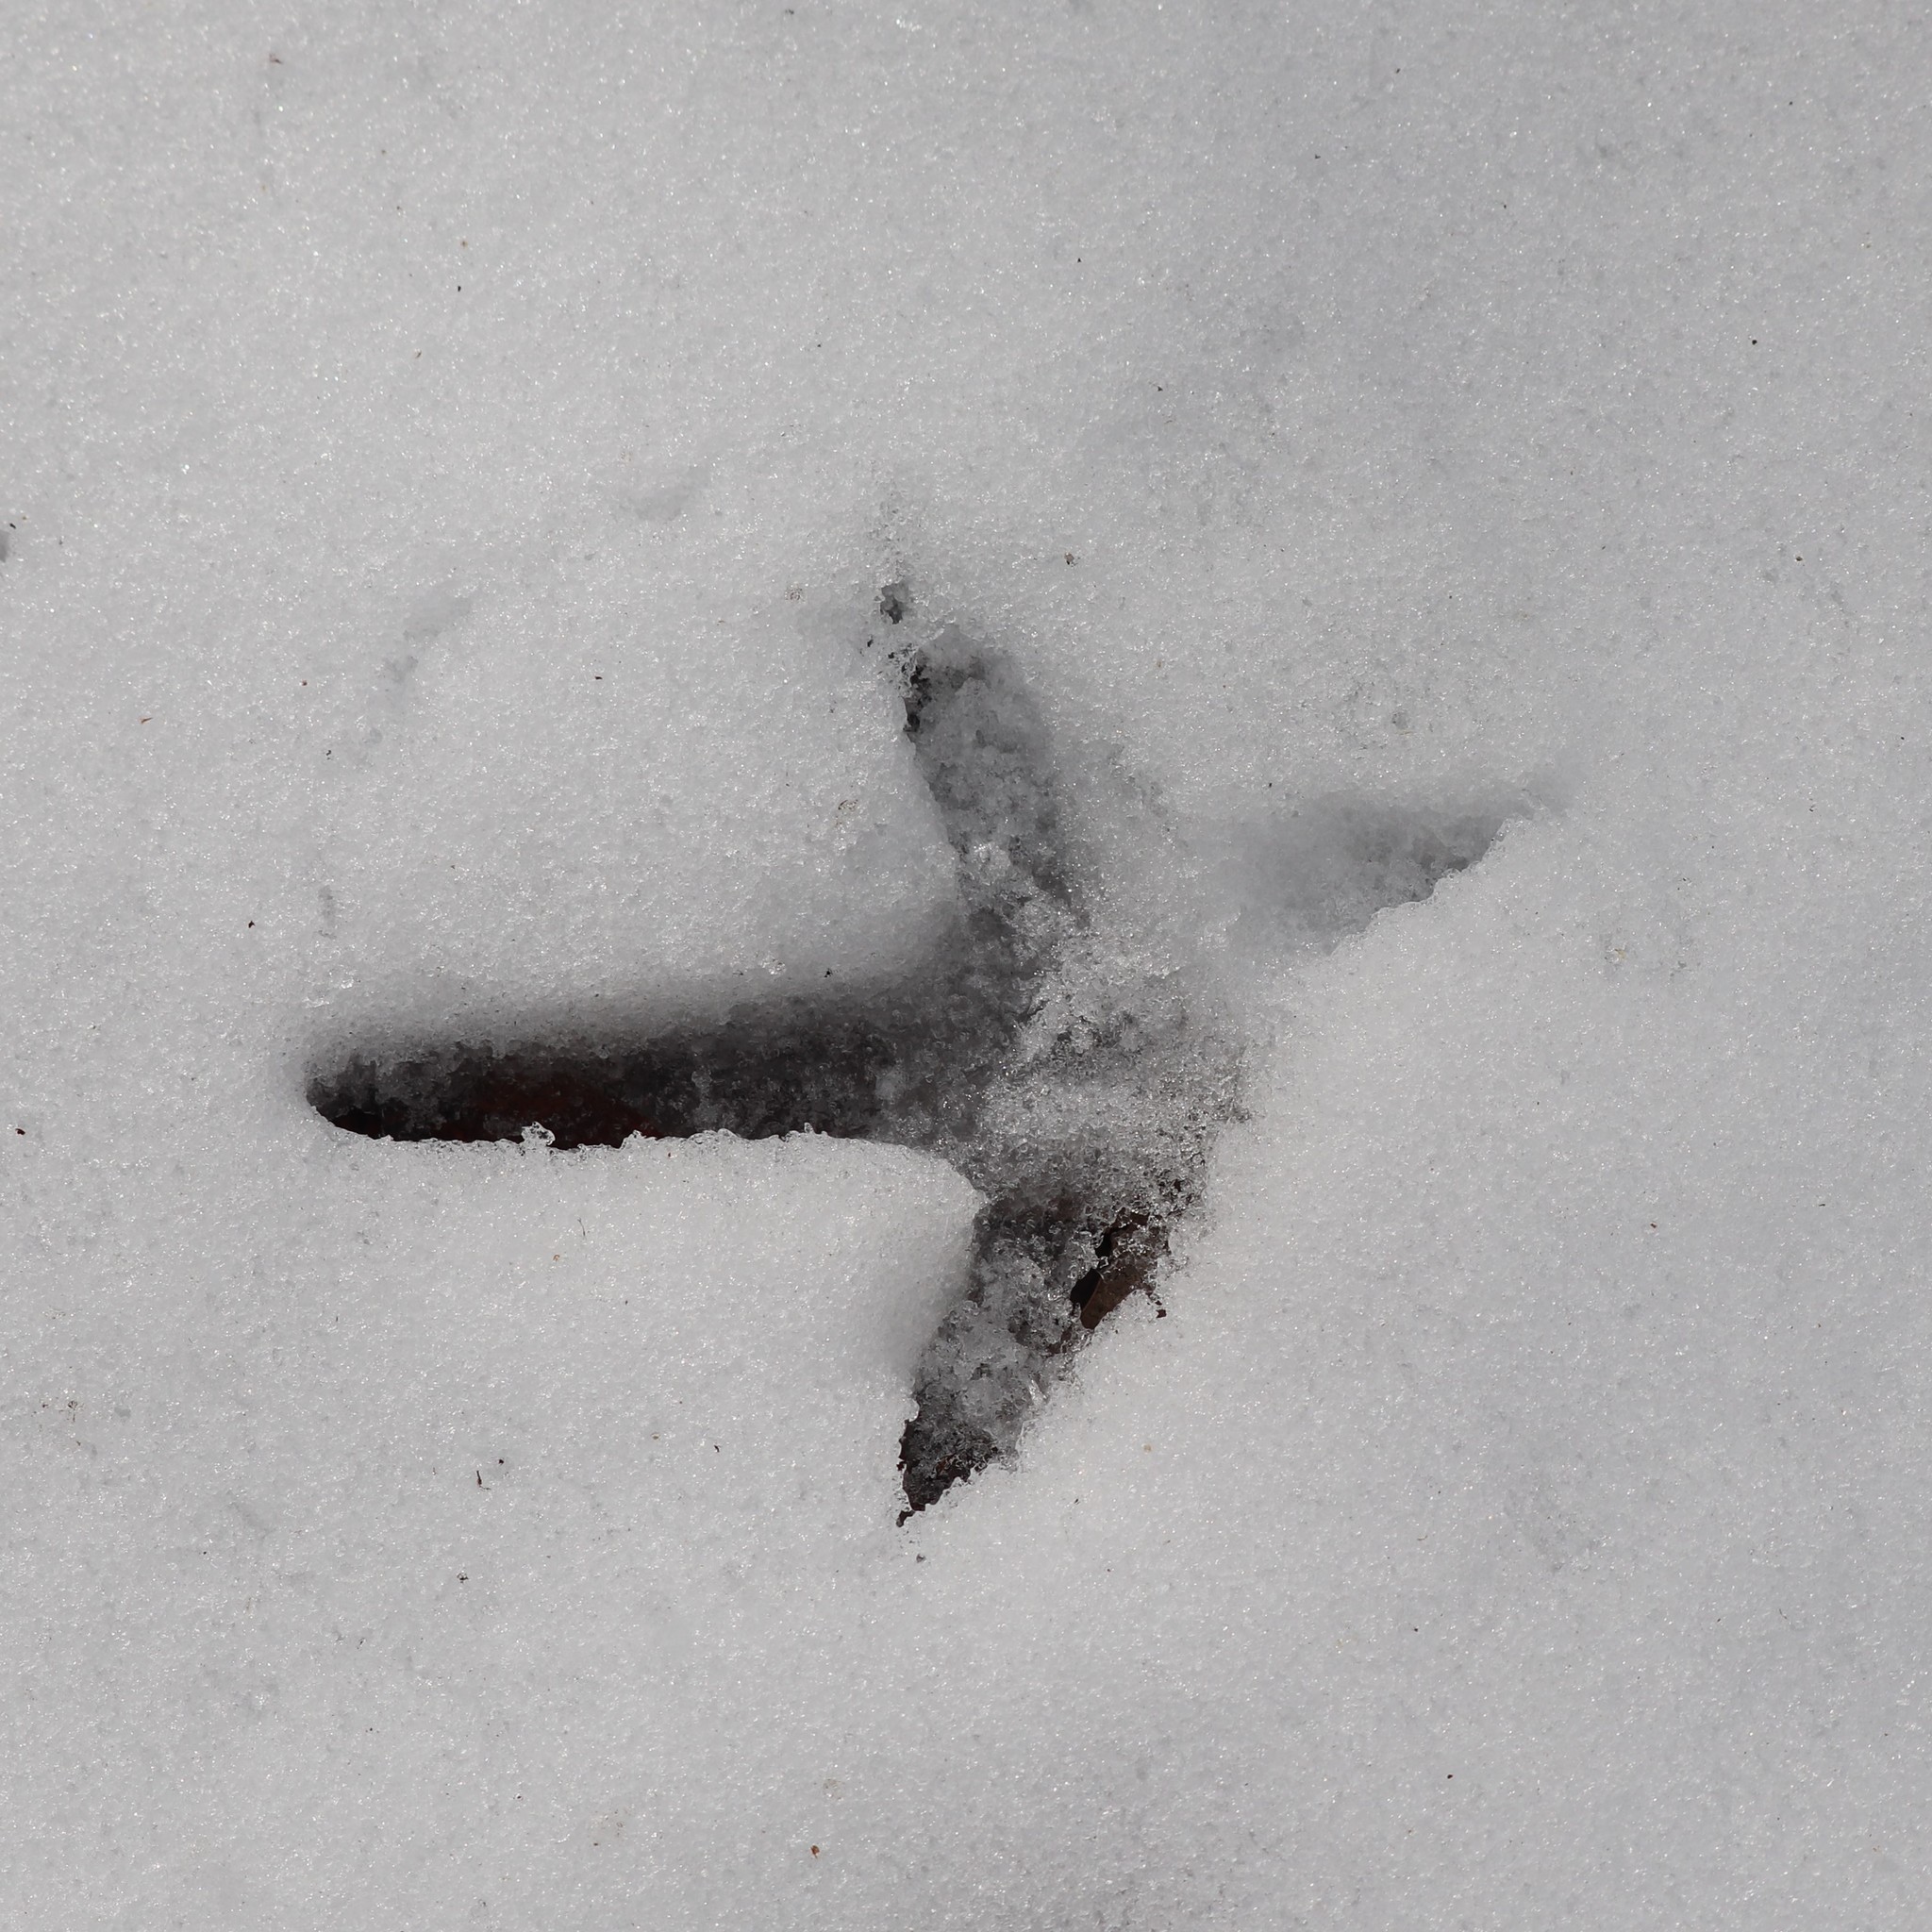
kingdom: Animalia
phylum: Chordata
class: Aves
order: Galliformes
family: Phasianidae
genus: Meleagris
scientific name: Meleagris gallopavo
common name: Wild turkey
